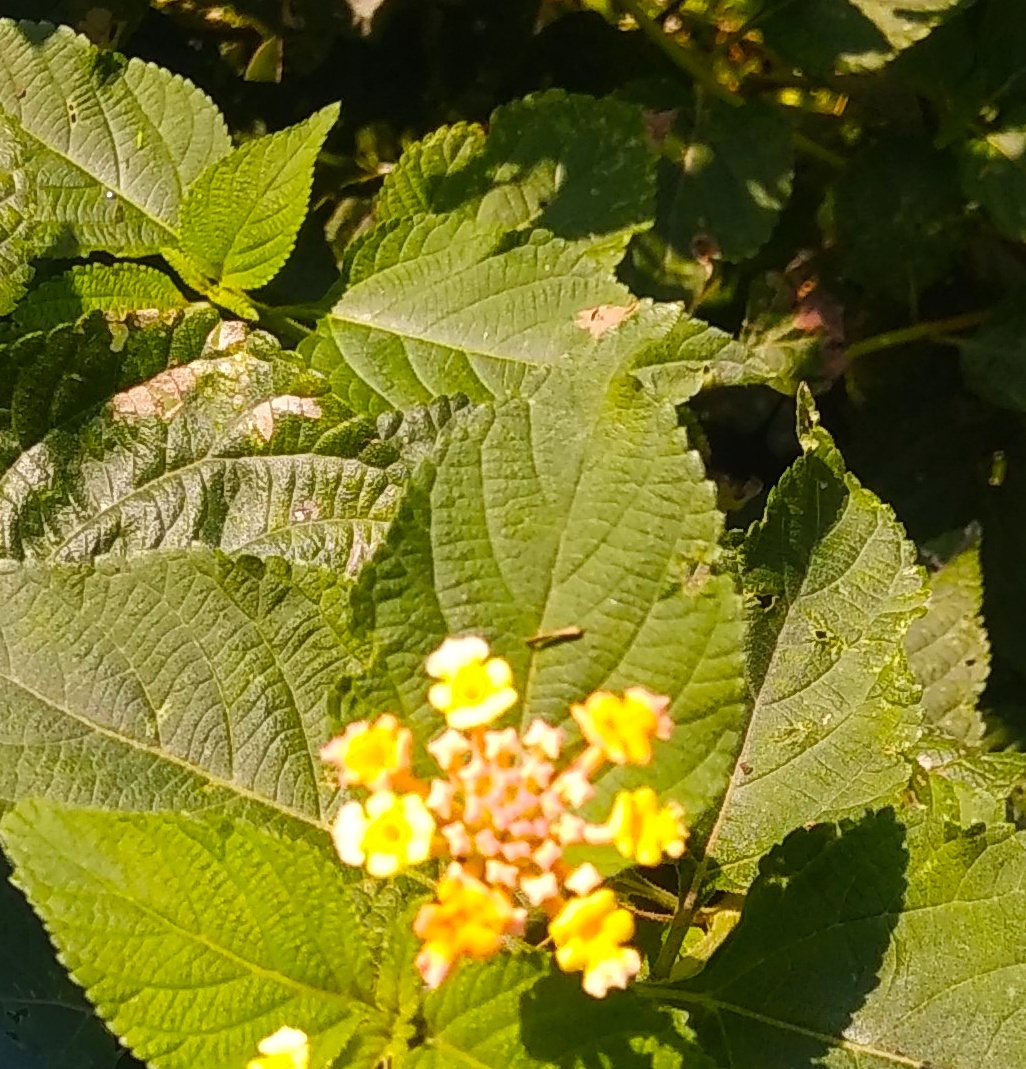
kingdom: Plantae
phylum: Tracheophyta
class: Magnoliopsida
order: Lamiales
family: Verbenaceae
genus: Lantana
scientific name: Lantana camara
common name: Lantana
